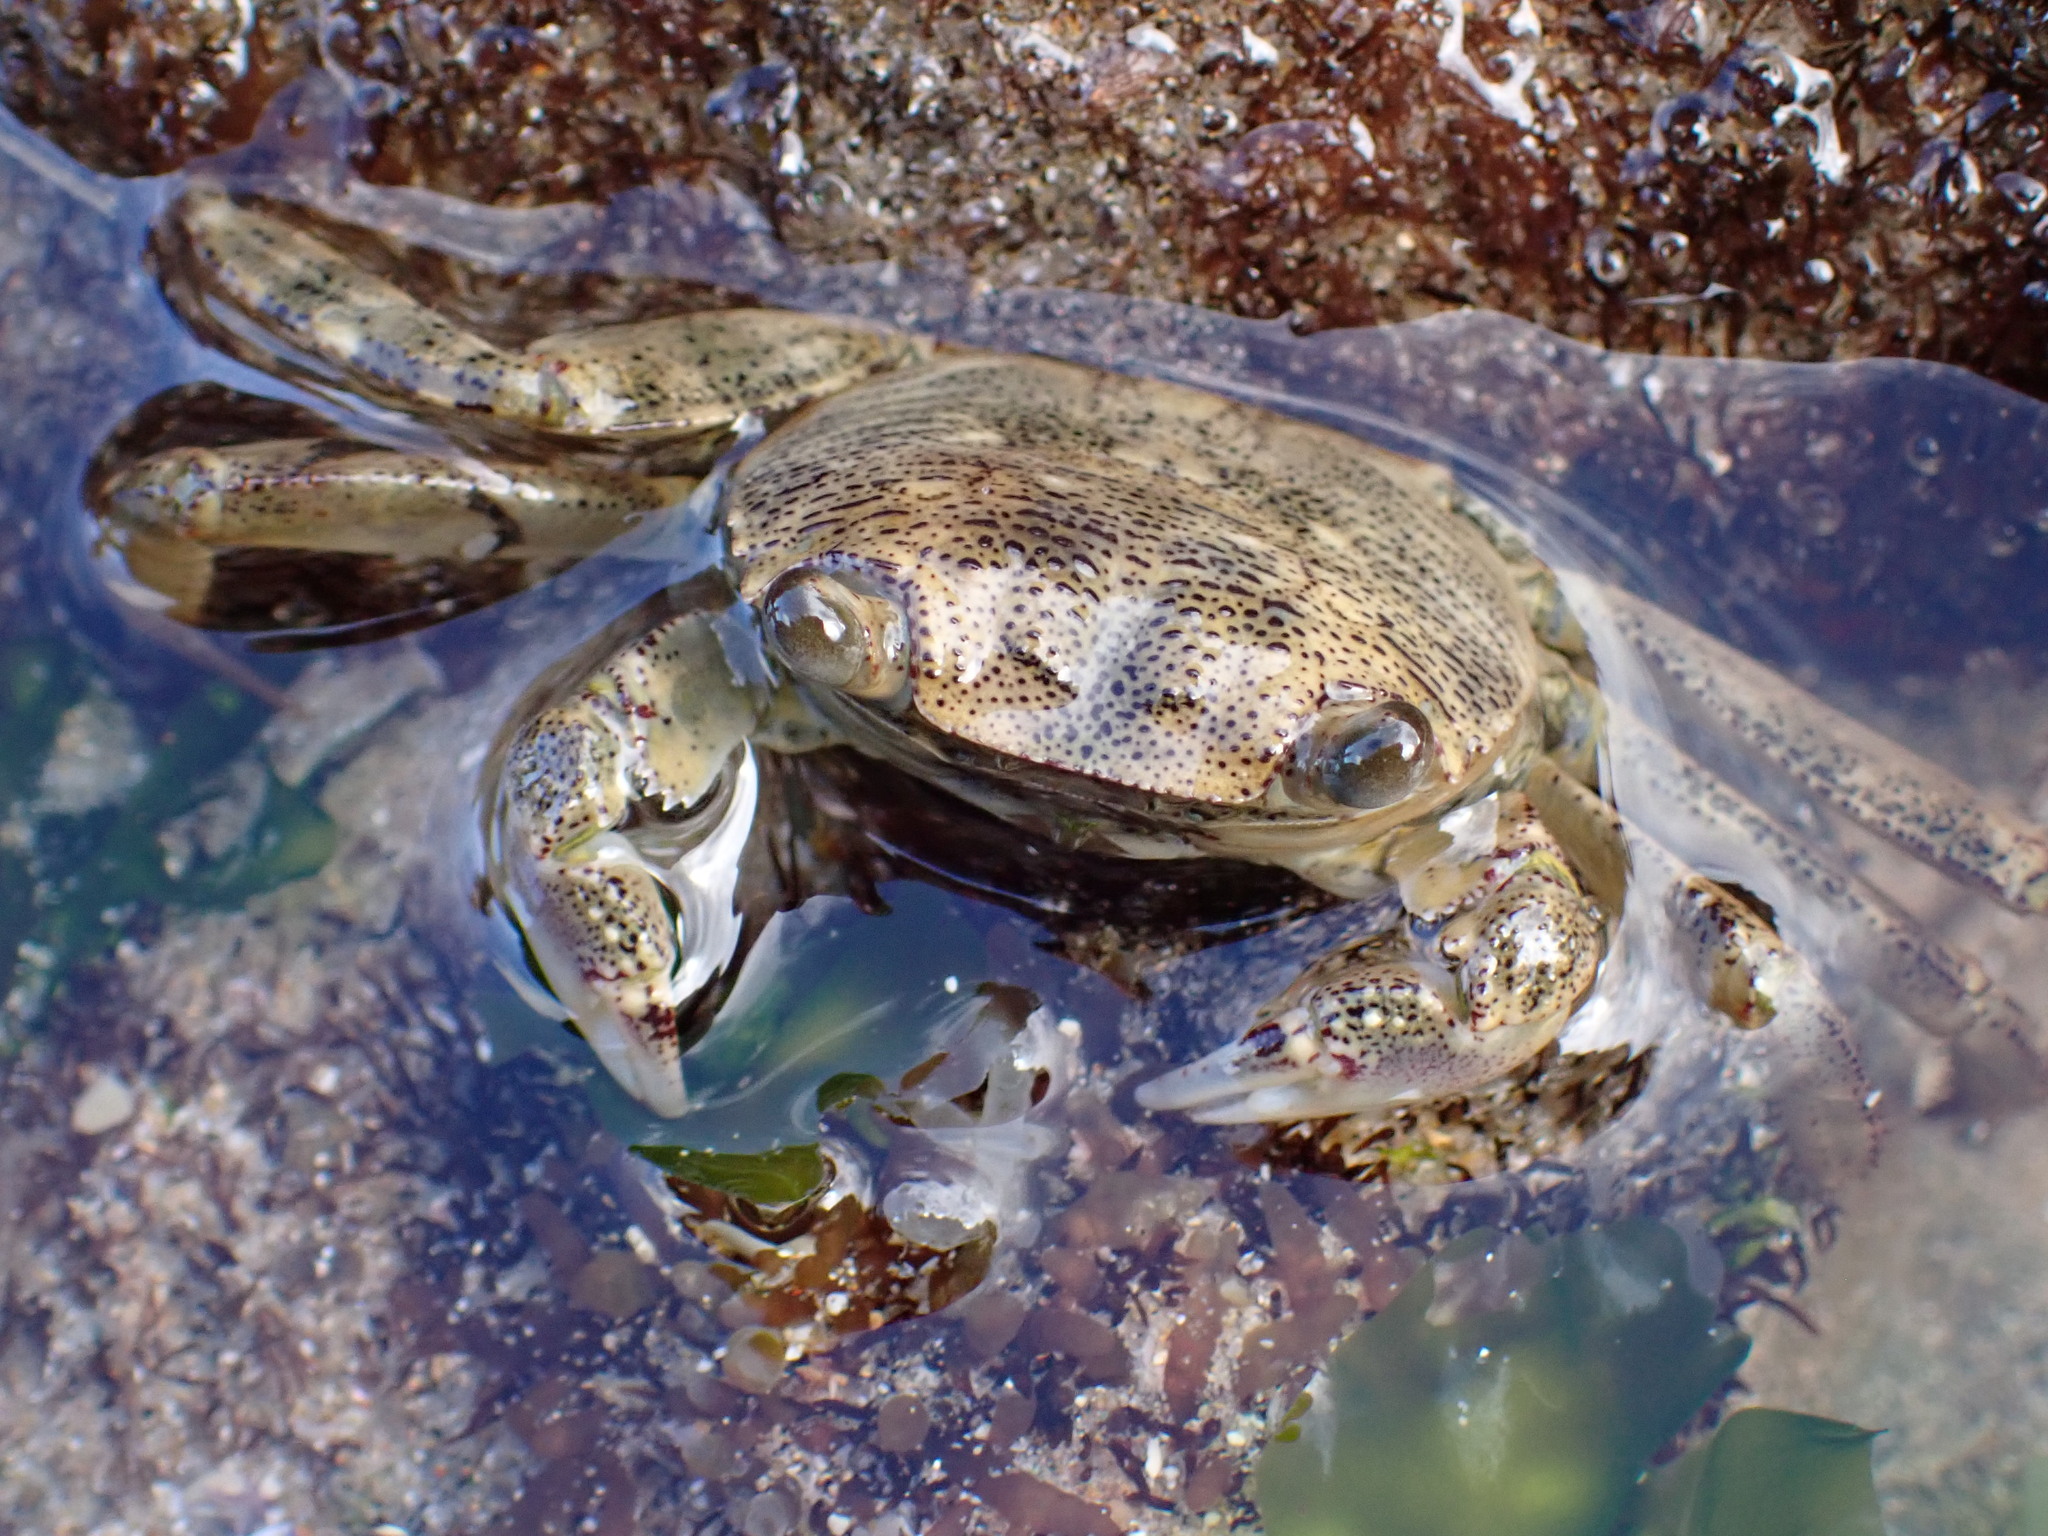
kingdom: Animalia
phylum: Arthropoda
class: Malacostraca
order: Decapoda
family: Grapsidae
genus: Leptograpsus
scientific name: Leptograpsus variegatus
